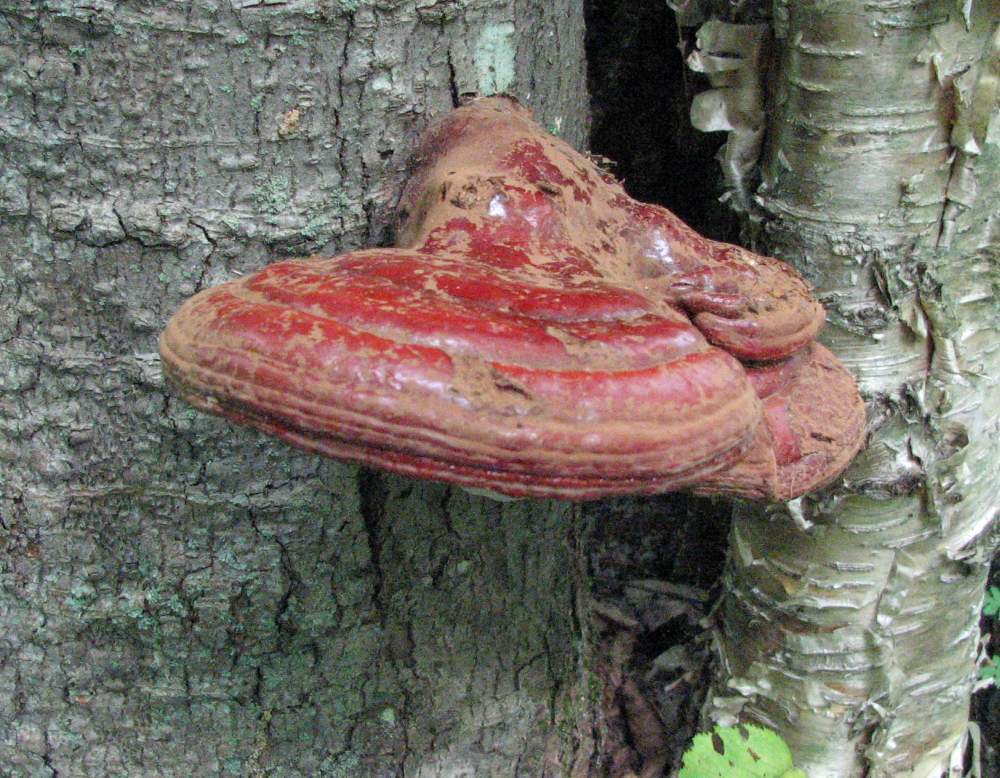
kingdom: Fungi
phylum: Basidiomycota
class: Agaricomycetes
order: Polyporales
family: Polyporaceae
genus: Ganoderma
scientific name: Ganoderma tsugae
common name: Hemlock varnish shelf
